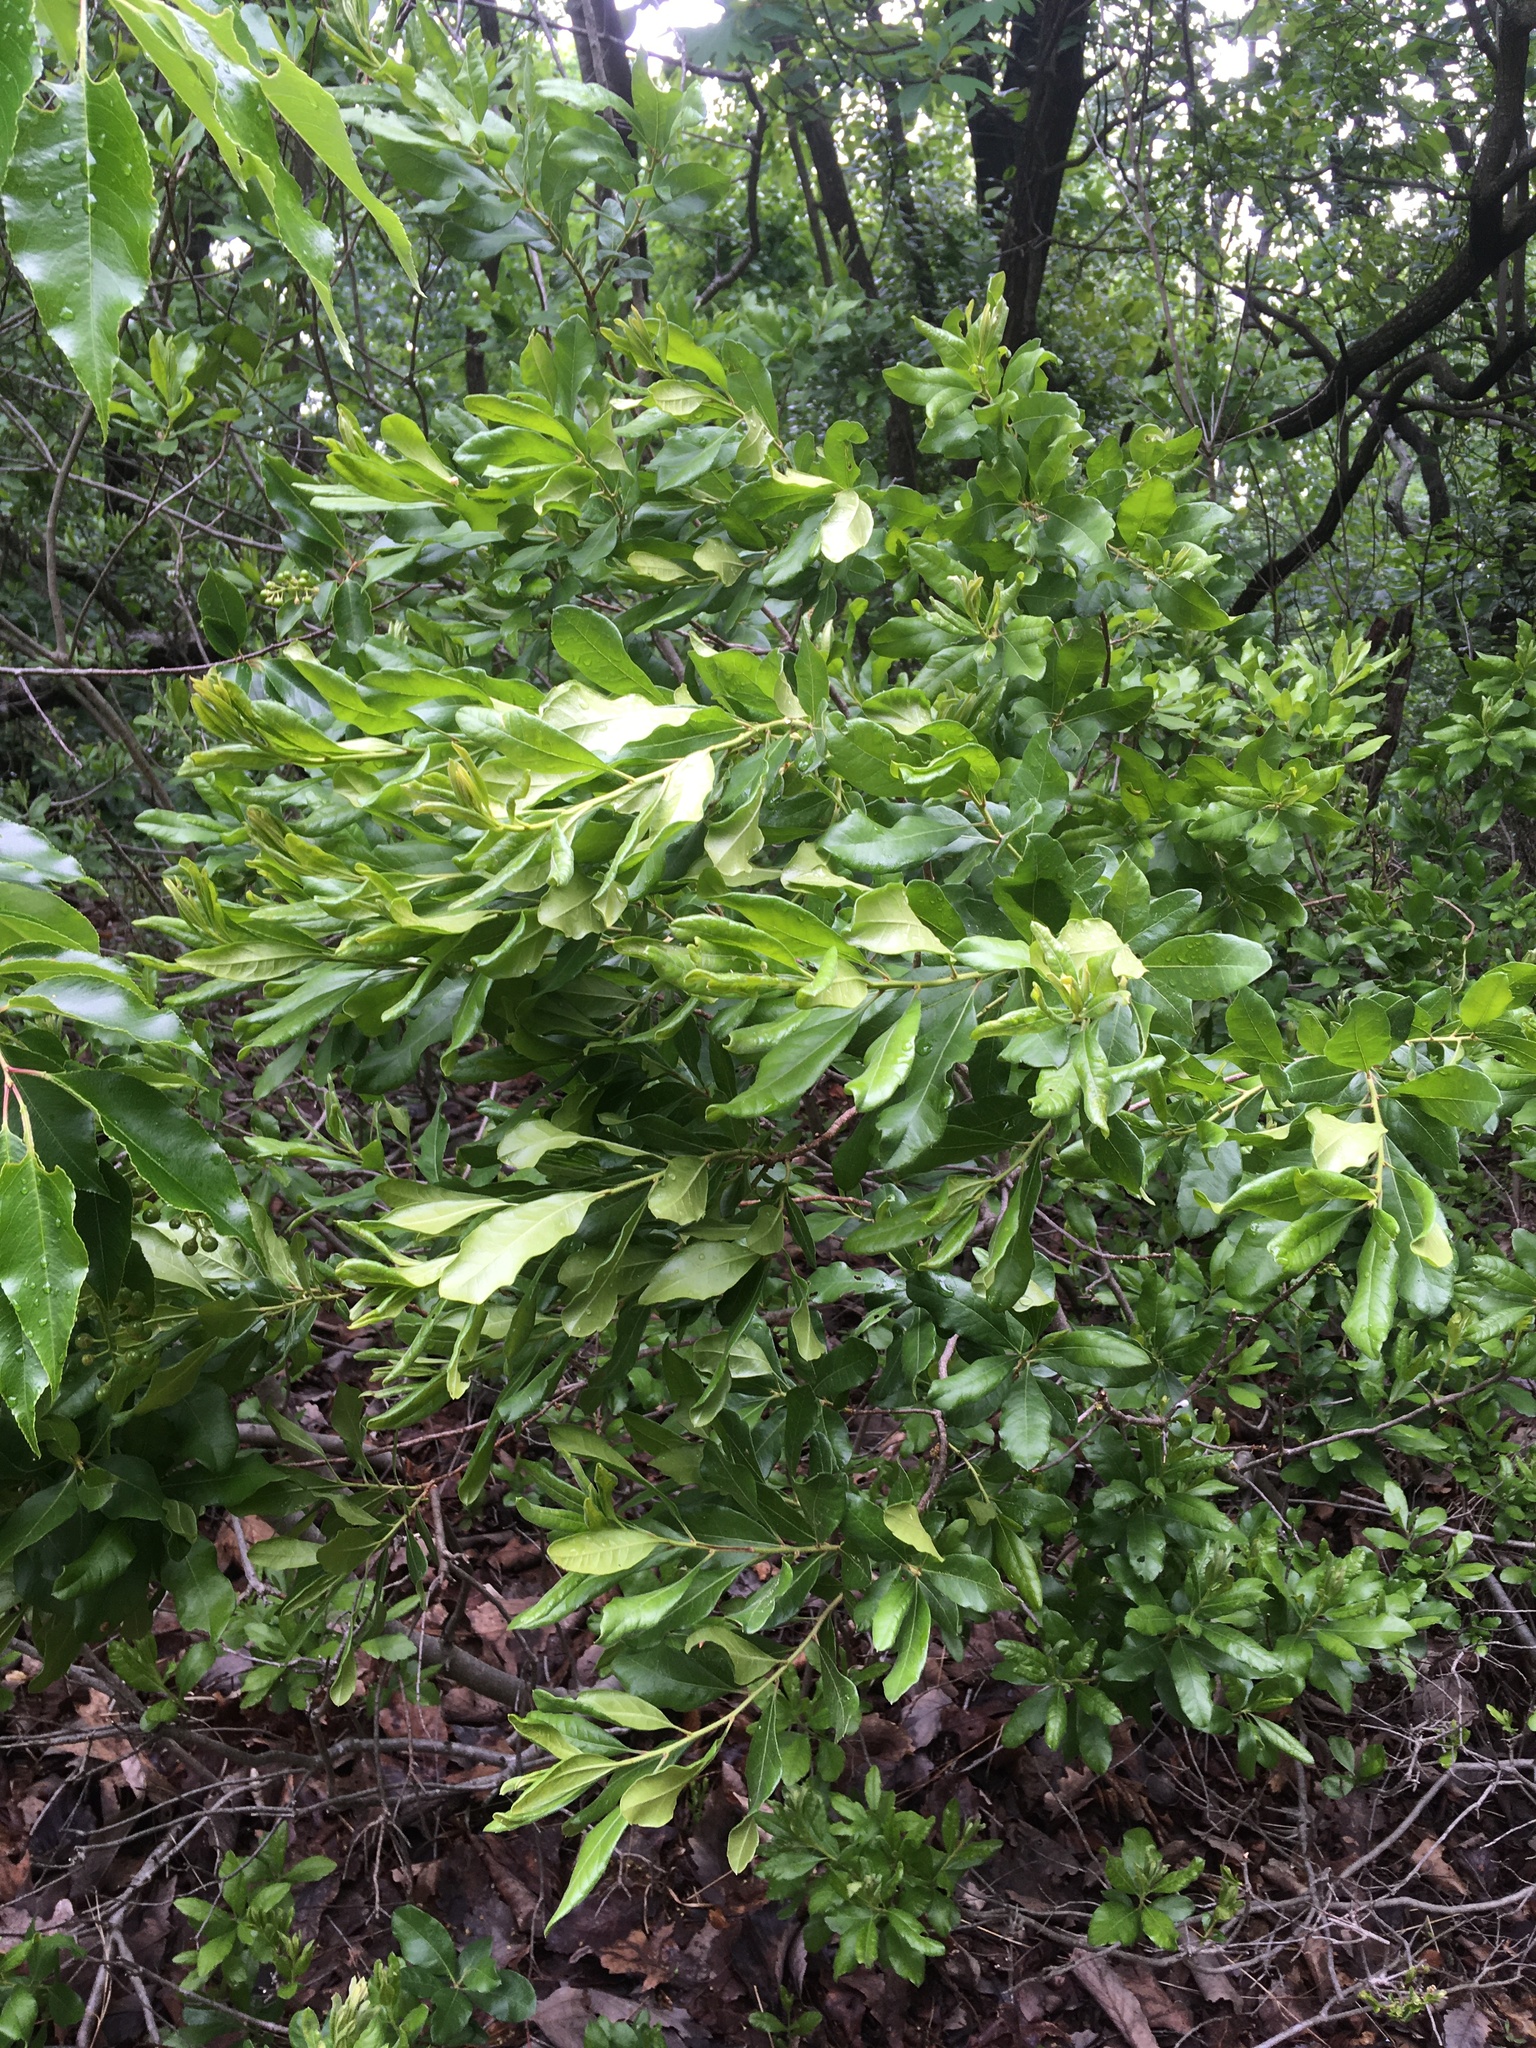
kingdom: Plantae
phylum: Tracheophyta
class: Magnoliopsida
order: Fagales
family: Myricaceae
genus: Morella
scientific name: Morella pensylvanica
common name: Northern bayberry
